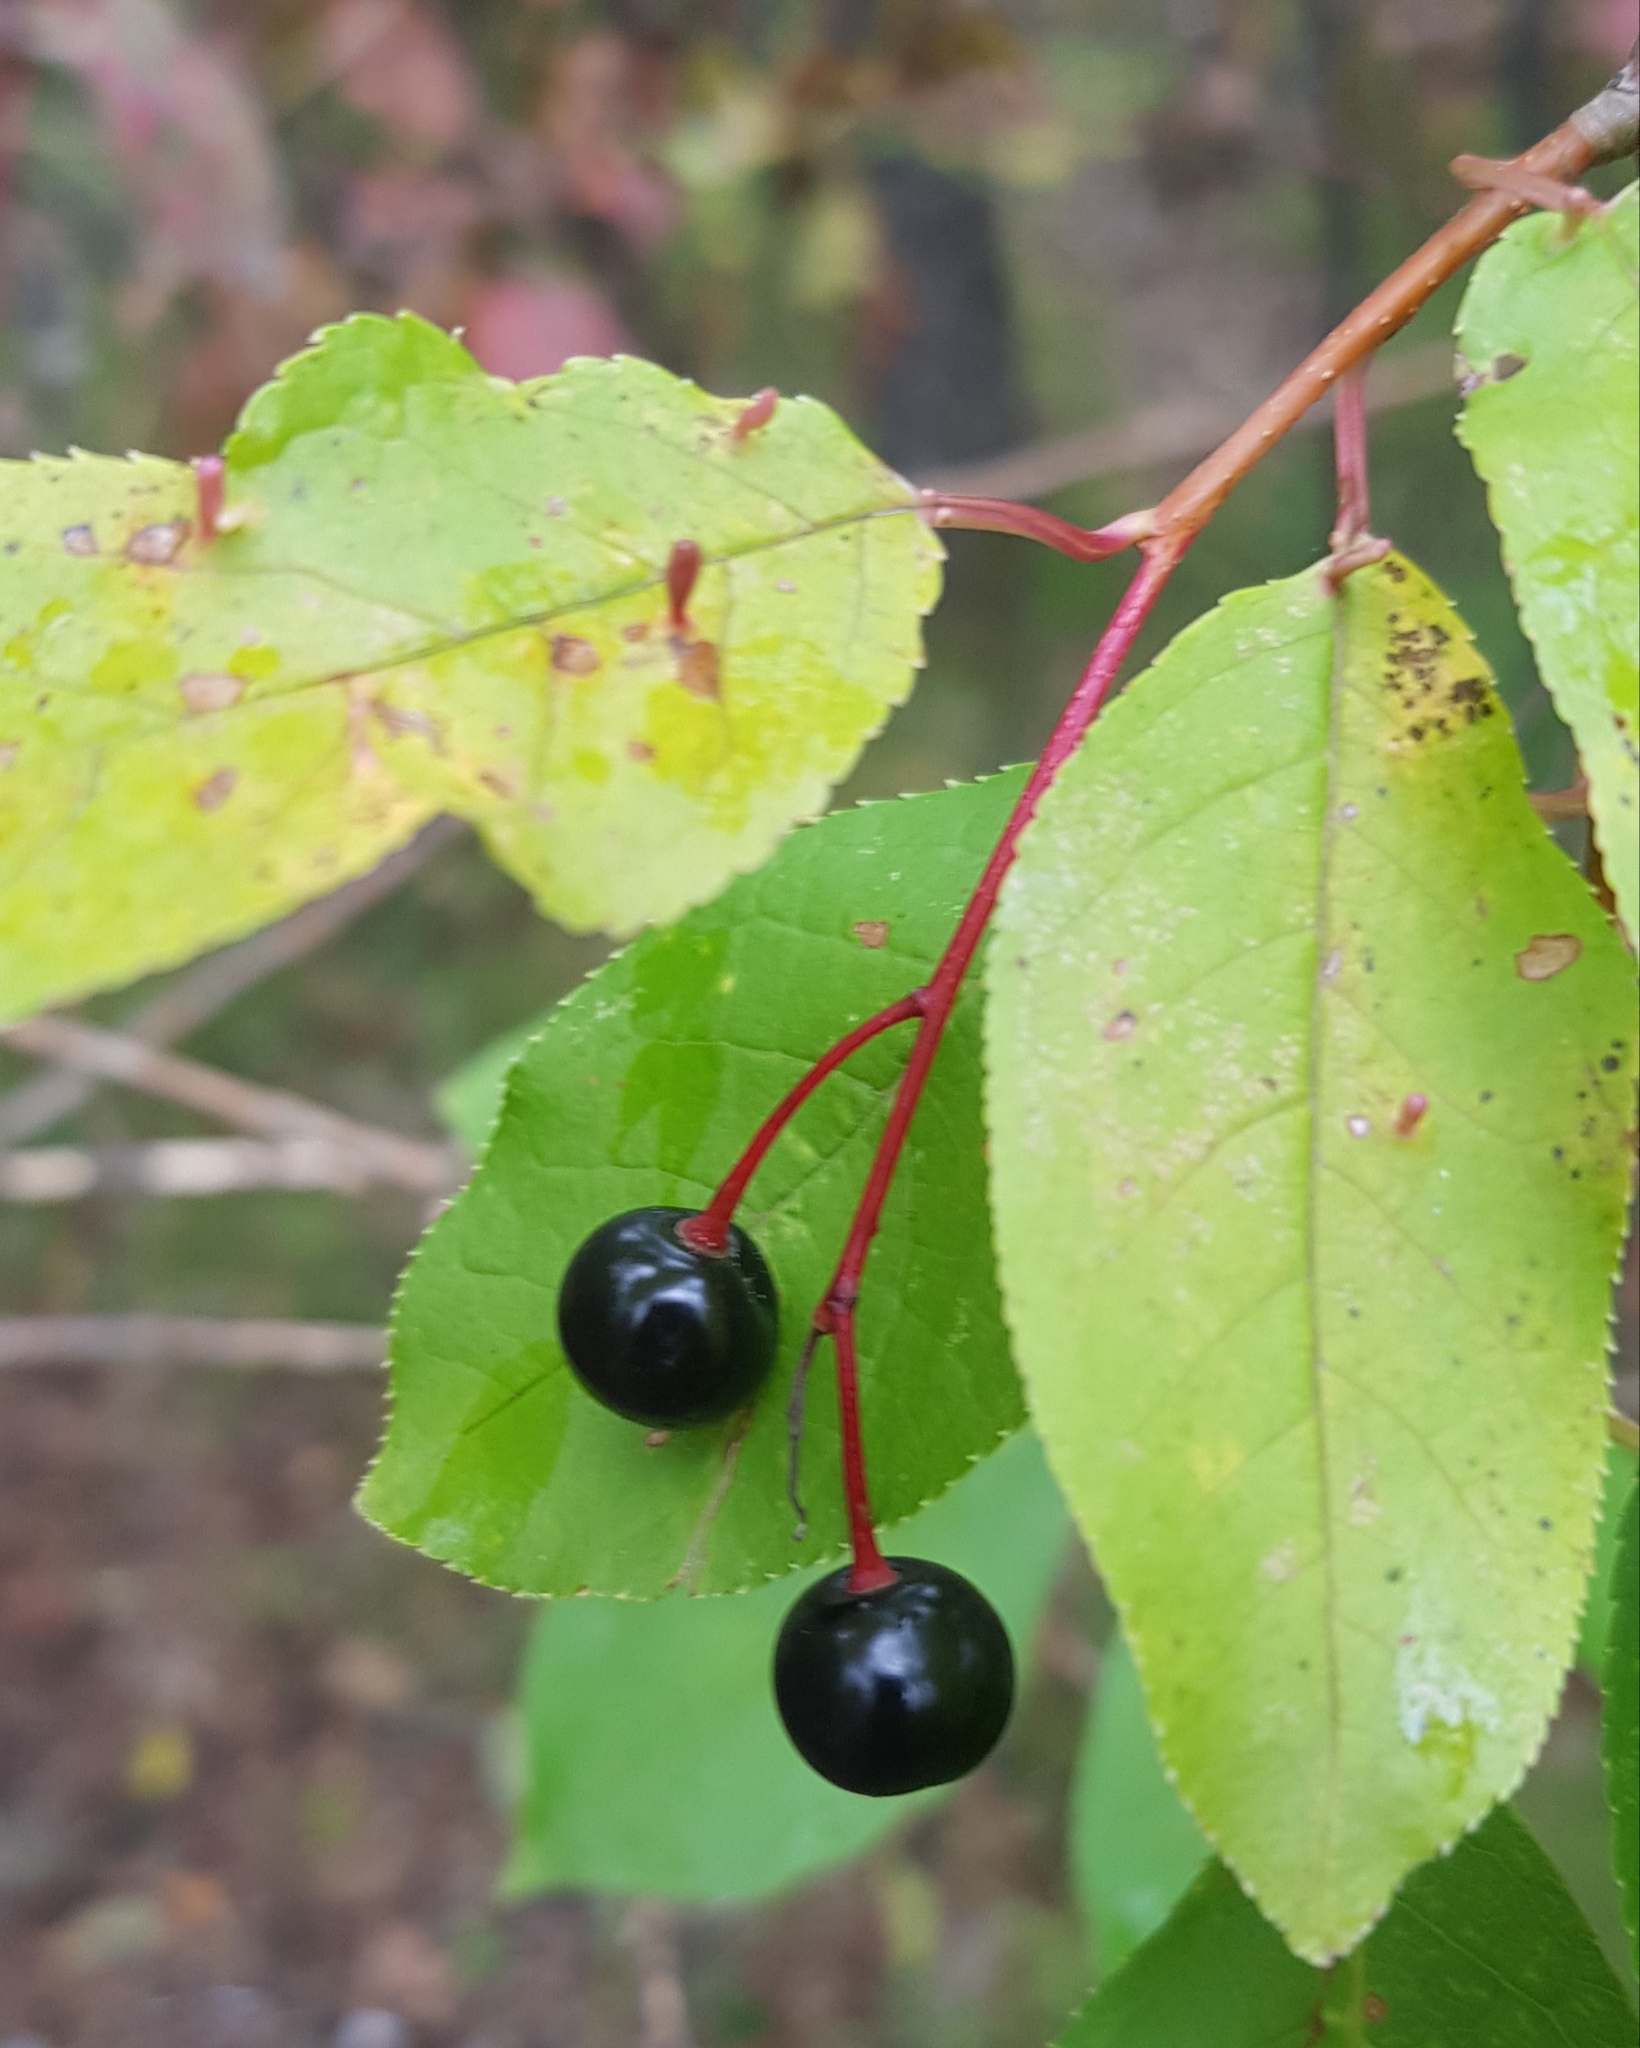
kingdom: Plantae
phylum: Tracheophyta
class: Magnoliopsida
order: Rosales
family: Rosaceae
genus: Prunus
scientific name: Prunus padus
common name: Bird cherry
